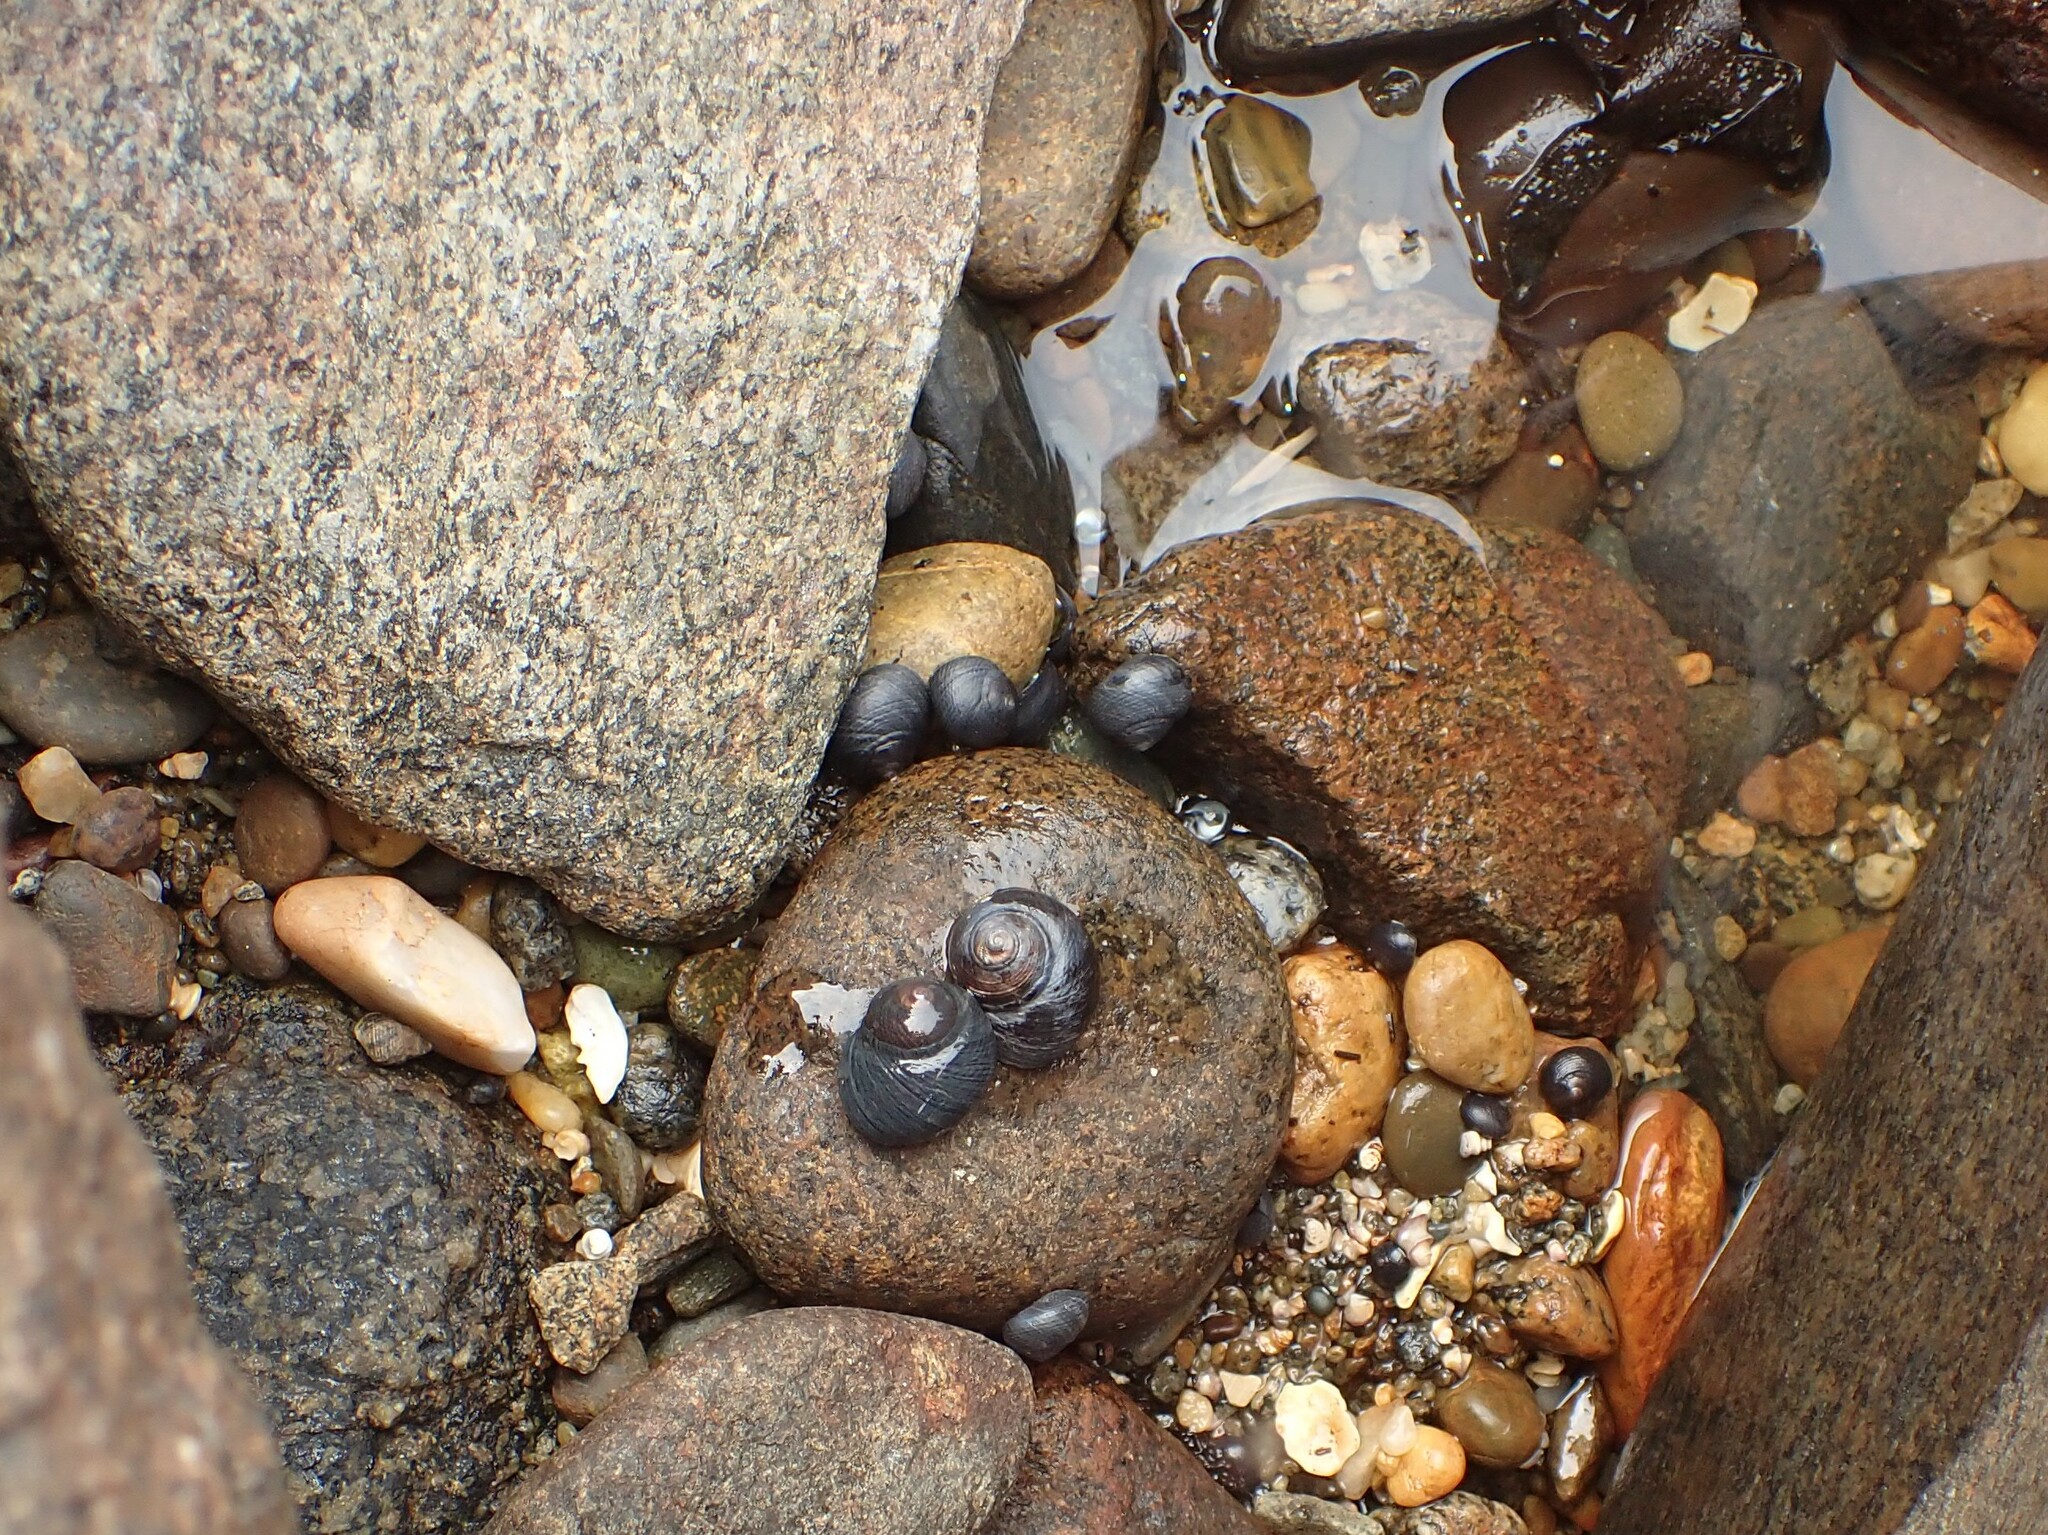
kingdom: Animalia
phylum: Mollusca
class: Gastropoda
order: Trochida
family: Trochidae
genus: Diloma
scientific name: Diloma nigerrimum
